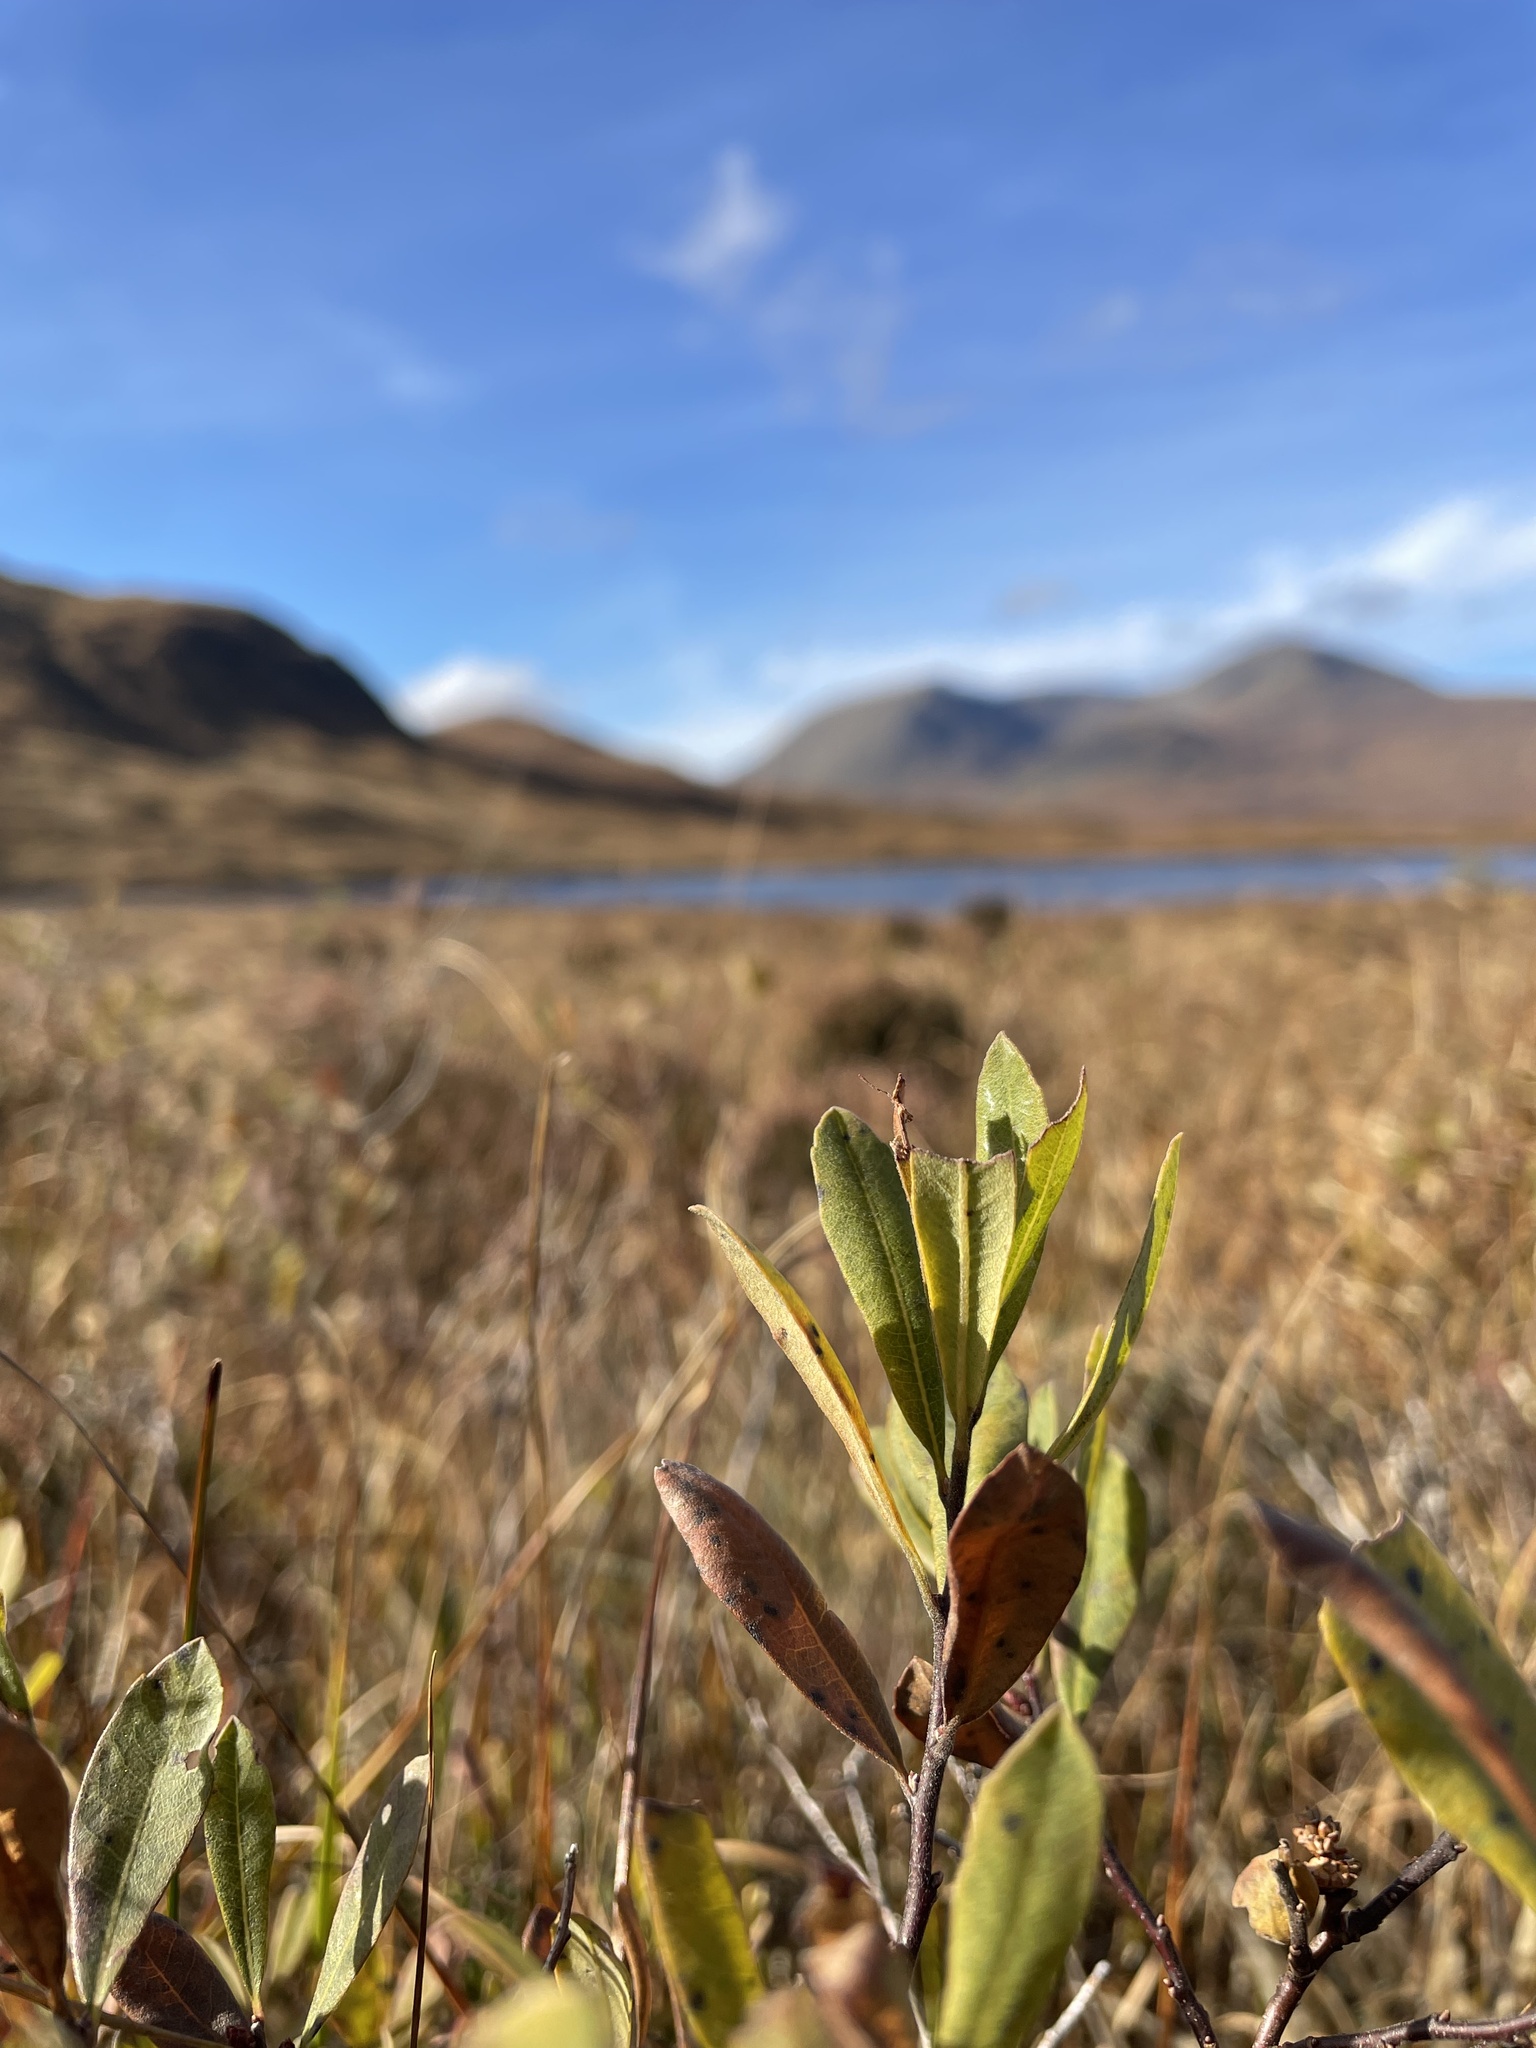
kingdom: Plantae
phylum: Tracheophyta
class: Magnoliopsida
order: Fagales
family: Myricaceae
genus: Myrica
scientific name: Myrica gale
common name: Sweet gale
